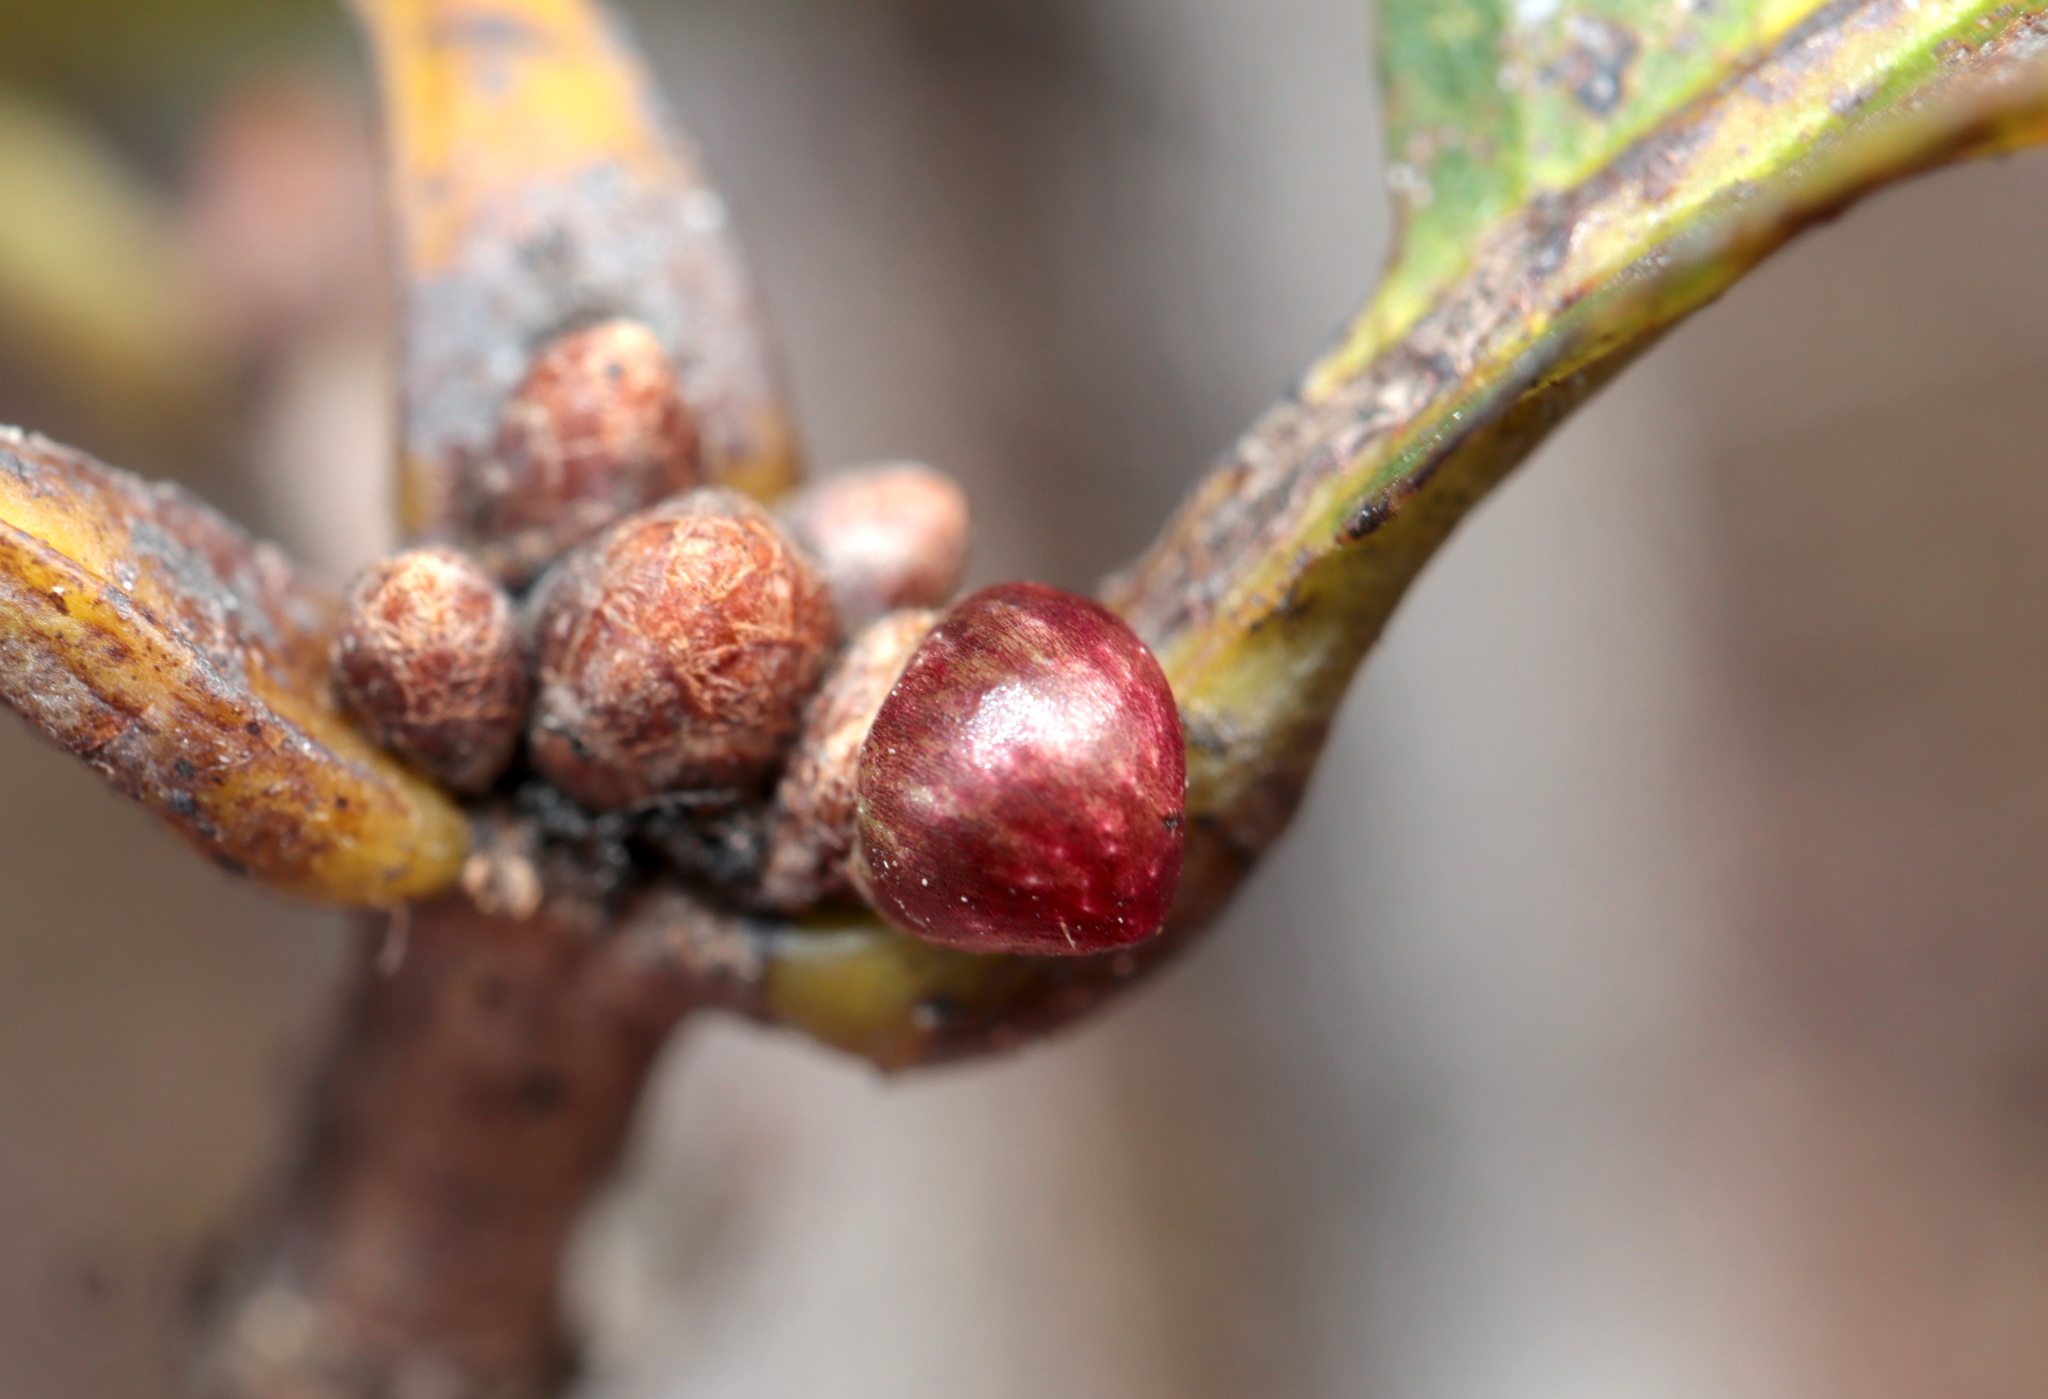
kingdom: Animalia
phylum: Arthropoda
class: Insecta
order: Hymenoptera
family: Cynipidae
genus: Andricus
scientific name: Andricus
